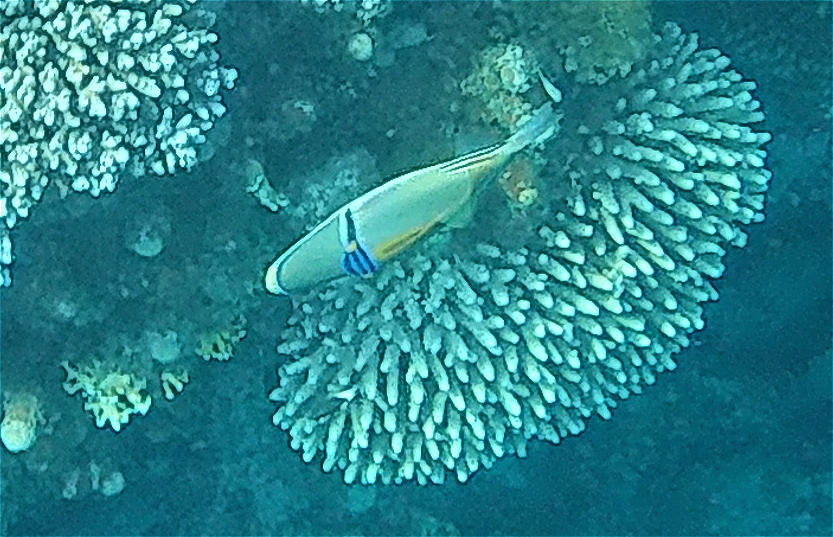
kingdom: Animalia
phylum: Chordata
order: Tetraodontiformes
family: Balistidae
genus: Rhinecanthus
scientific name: Rhinecanthus assasi
